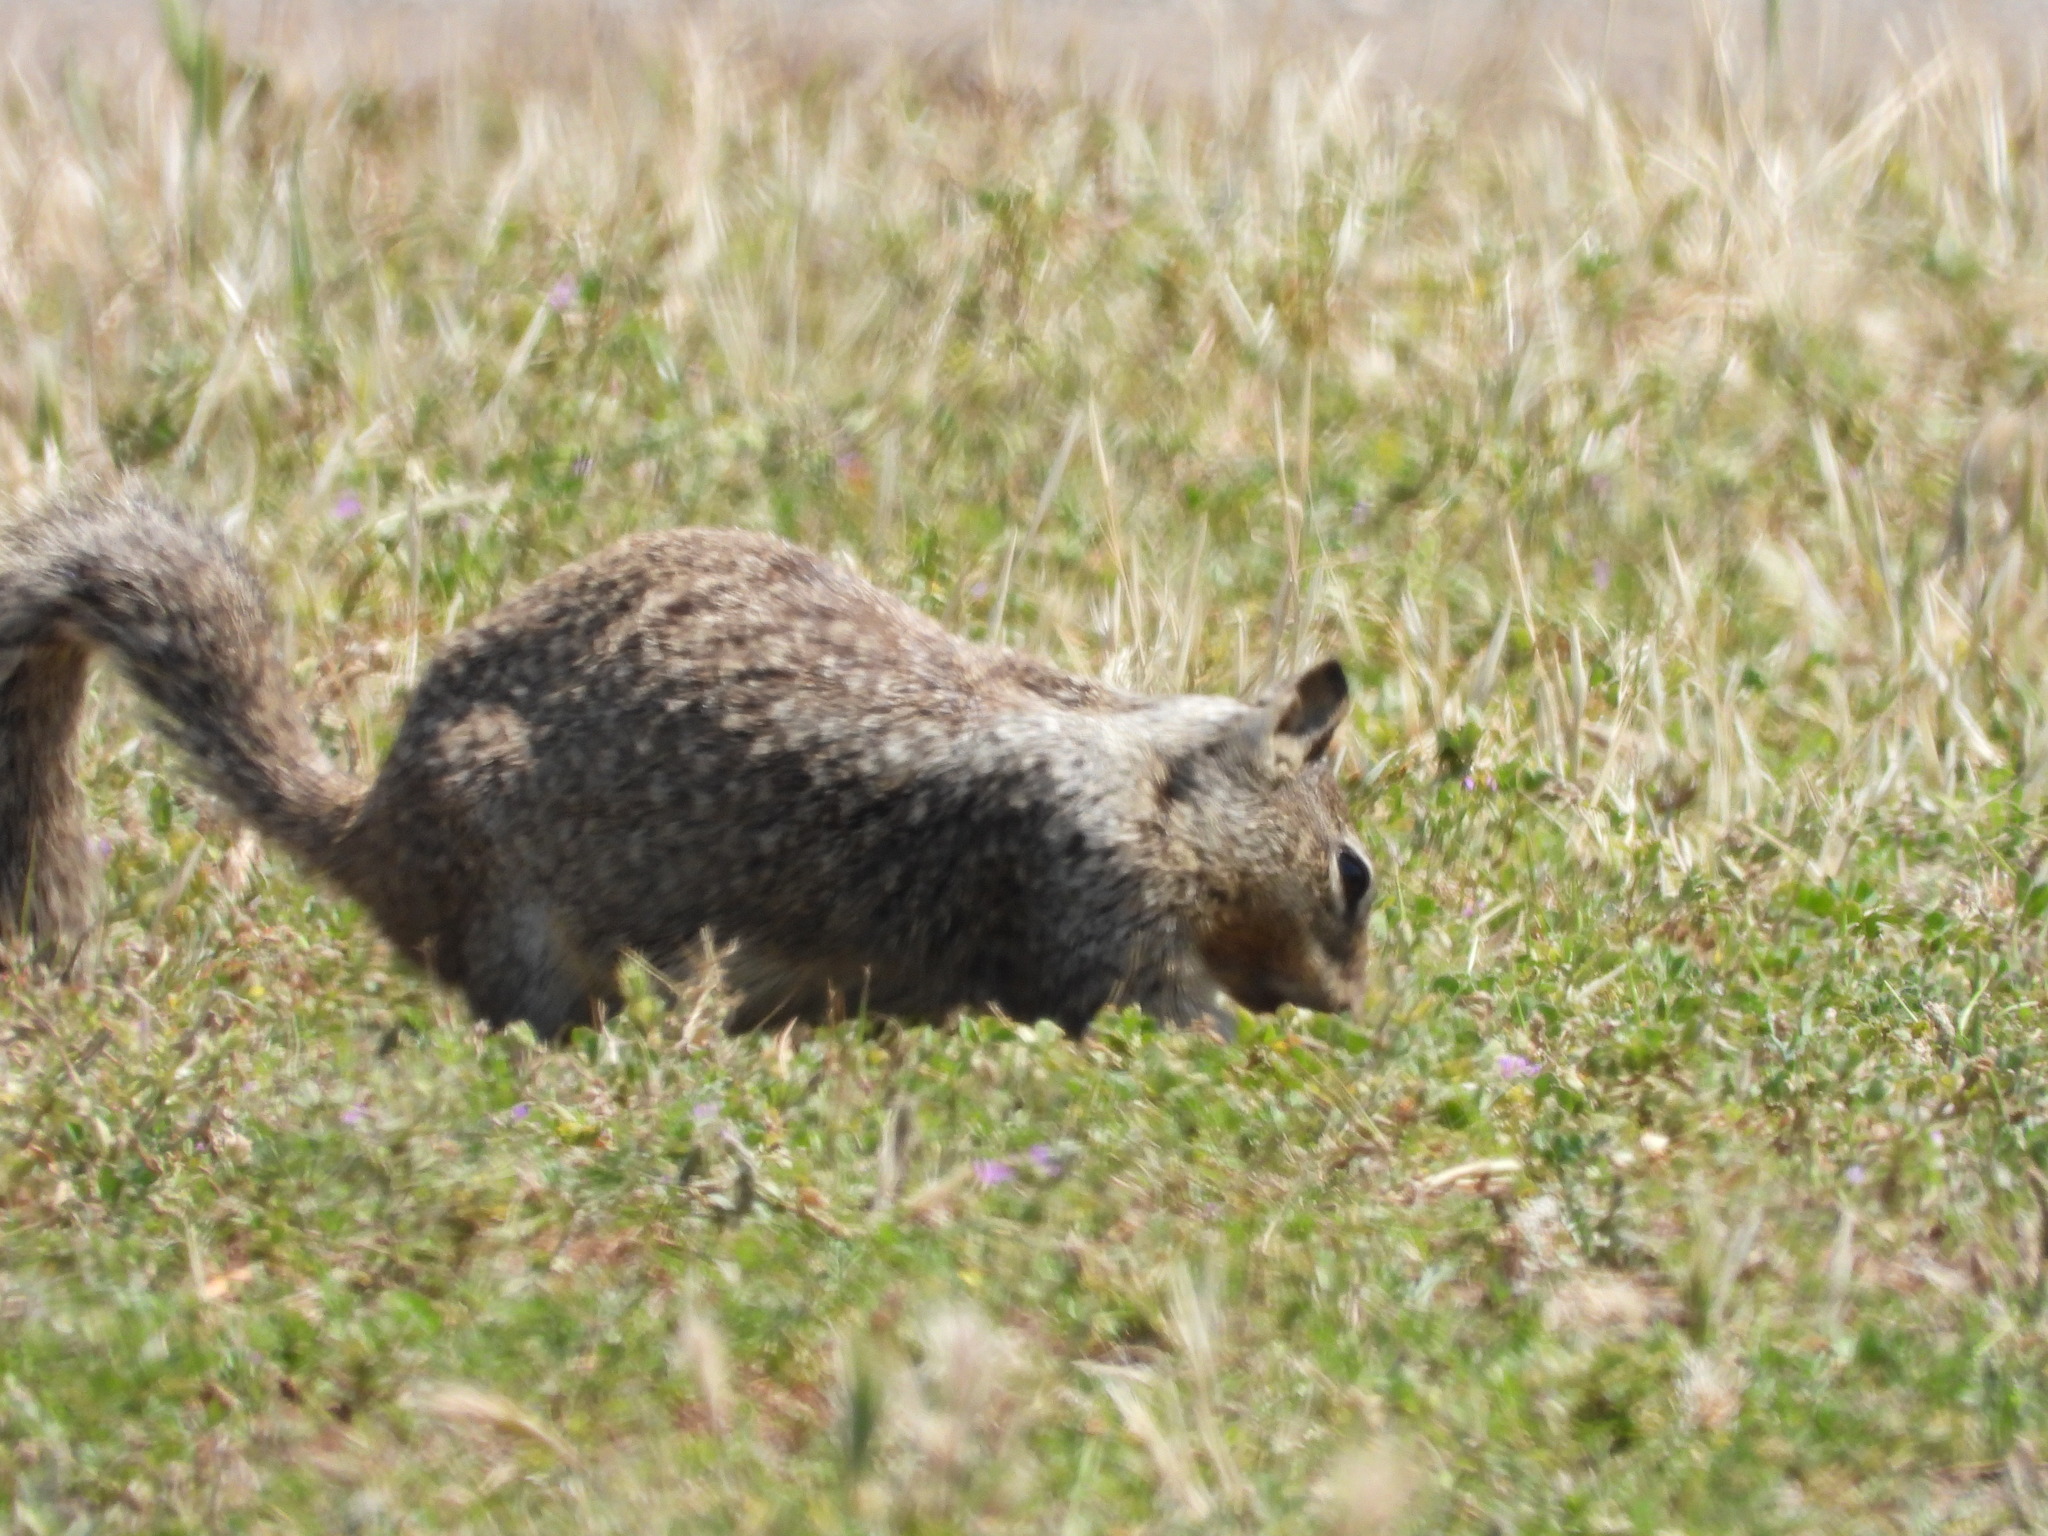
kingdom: Animalia
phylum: Chordata
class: Mammalia
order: Rodentia
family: Sciuridae
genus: Otospermophilus
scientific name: Otospermophilus beecheyi
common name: California ground squirrel
